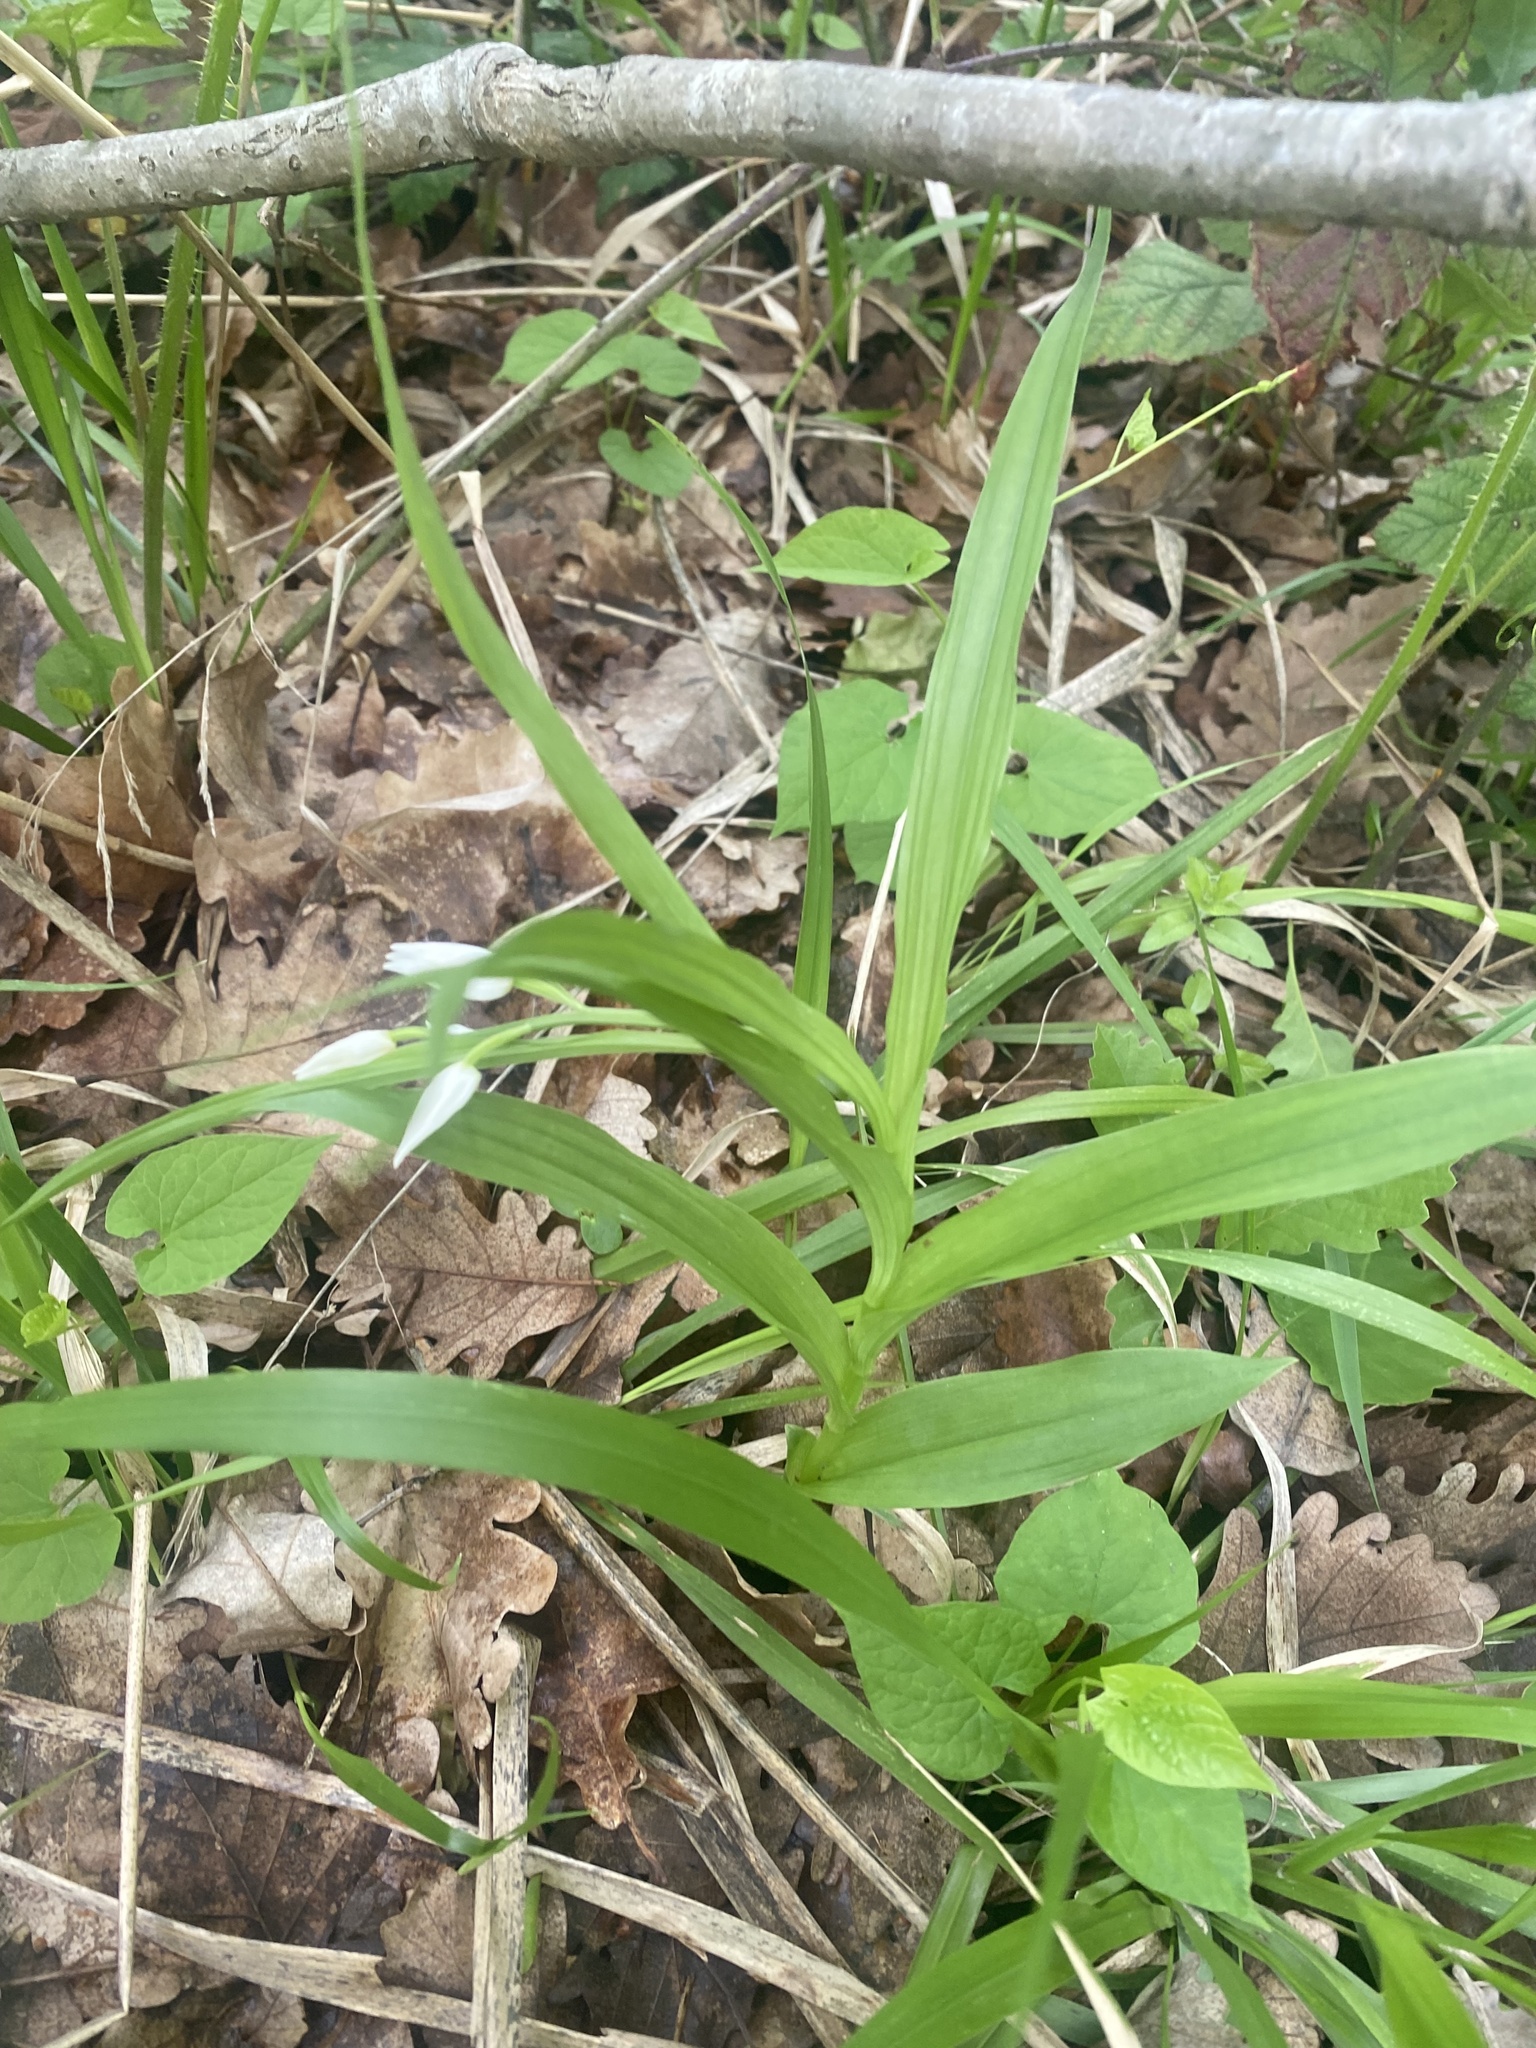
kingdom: Plantae
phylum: Tracheophyta
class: Liliopsida
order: Asparagales
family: Orchidaceae
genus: Cephalanthera
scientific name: Cephalanthera longifolia
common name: Narrow-leaved helleborine
